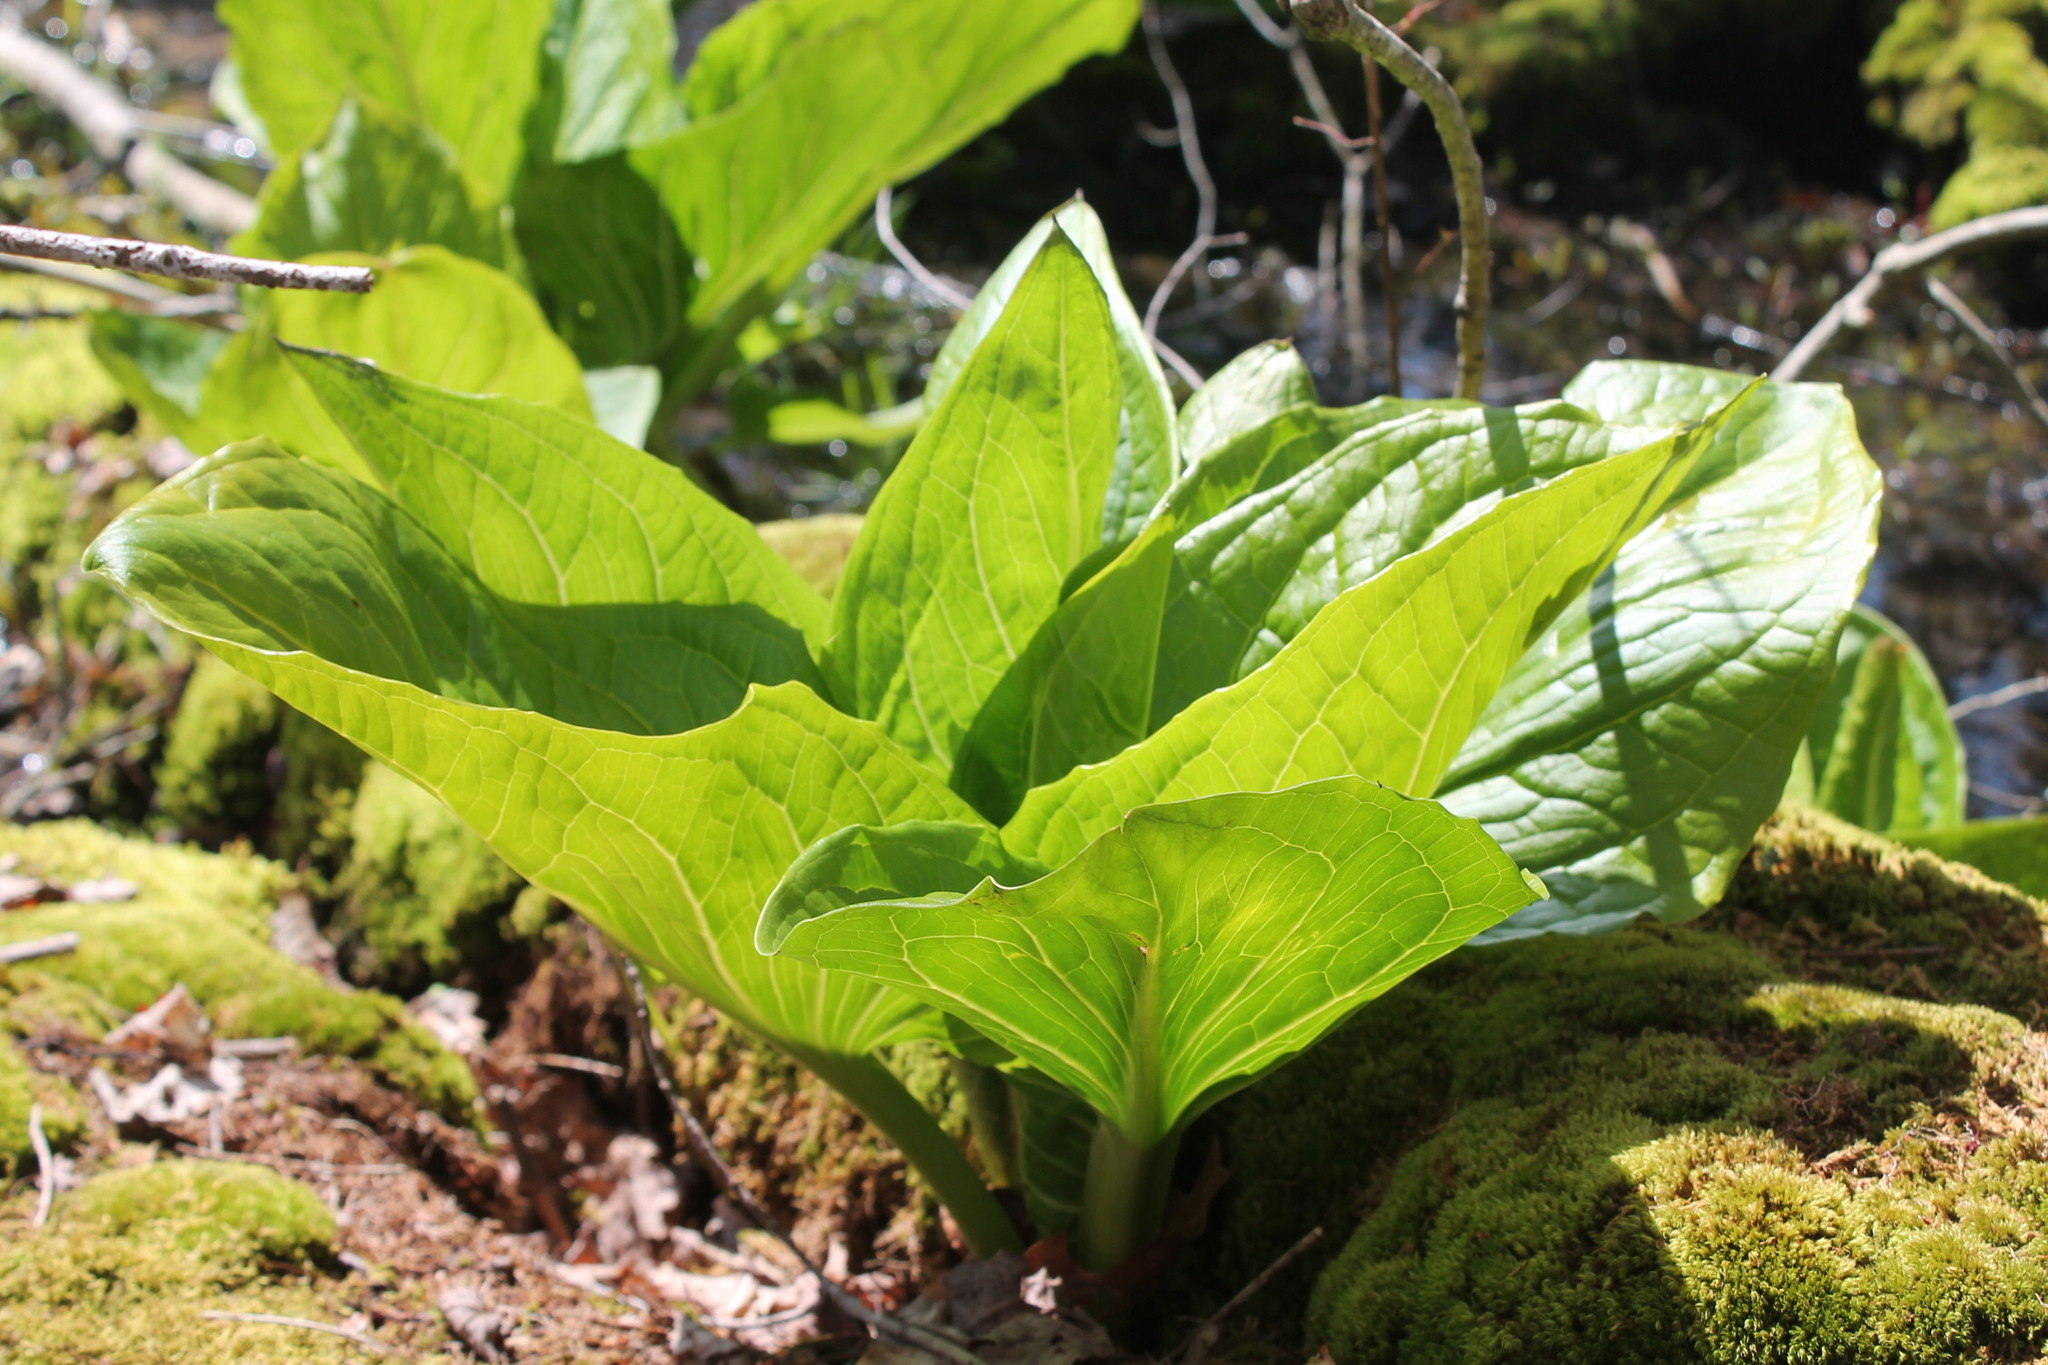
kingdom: Plantae
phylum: Tracheophyta
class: Liliopsida
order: Alismatales
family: Araceae
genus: Symplocarpus
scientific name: Symplocarpus foetidus
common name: Eastern skunk cabbage
